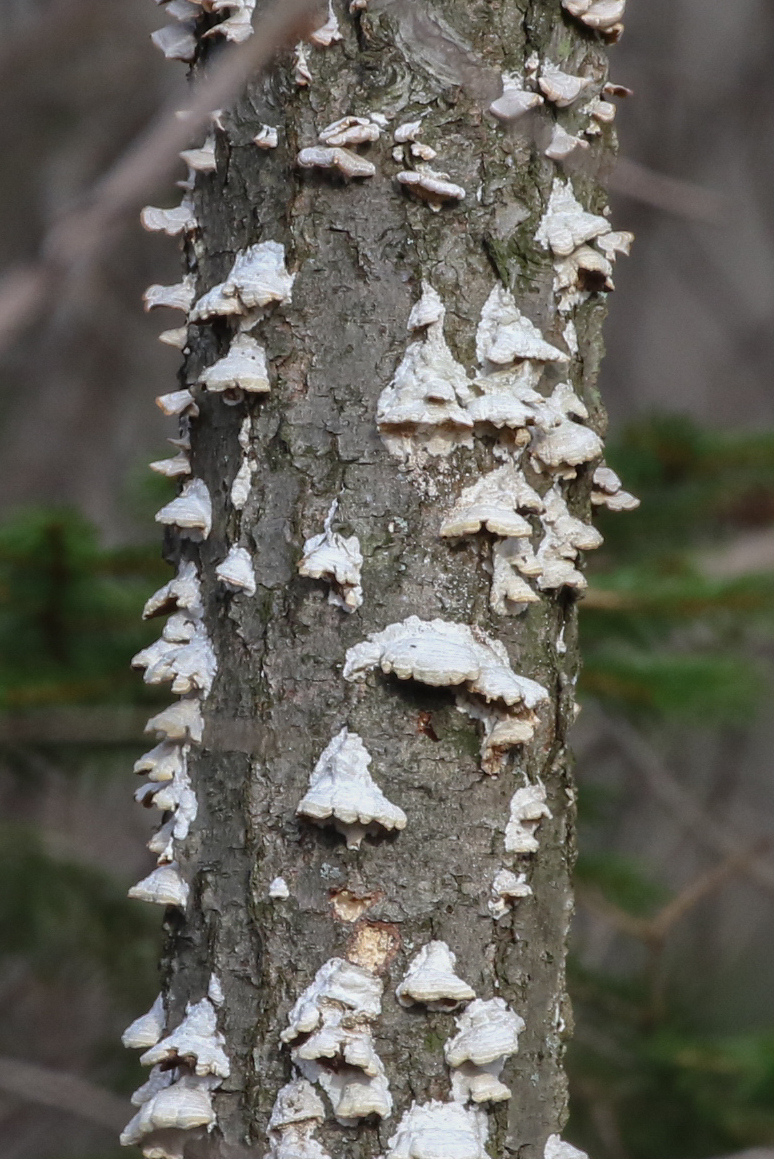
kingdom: Fungi
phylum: Basidiomycota
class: Agaricomycetes
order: Hymenochaetales
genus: Trichaptum
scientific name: Trichaptum biforme
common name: Violet-toothed polypore
